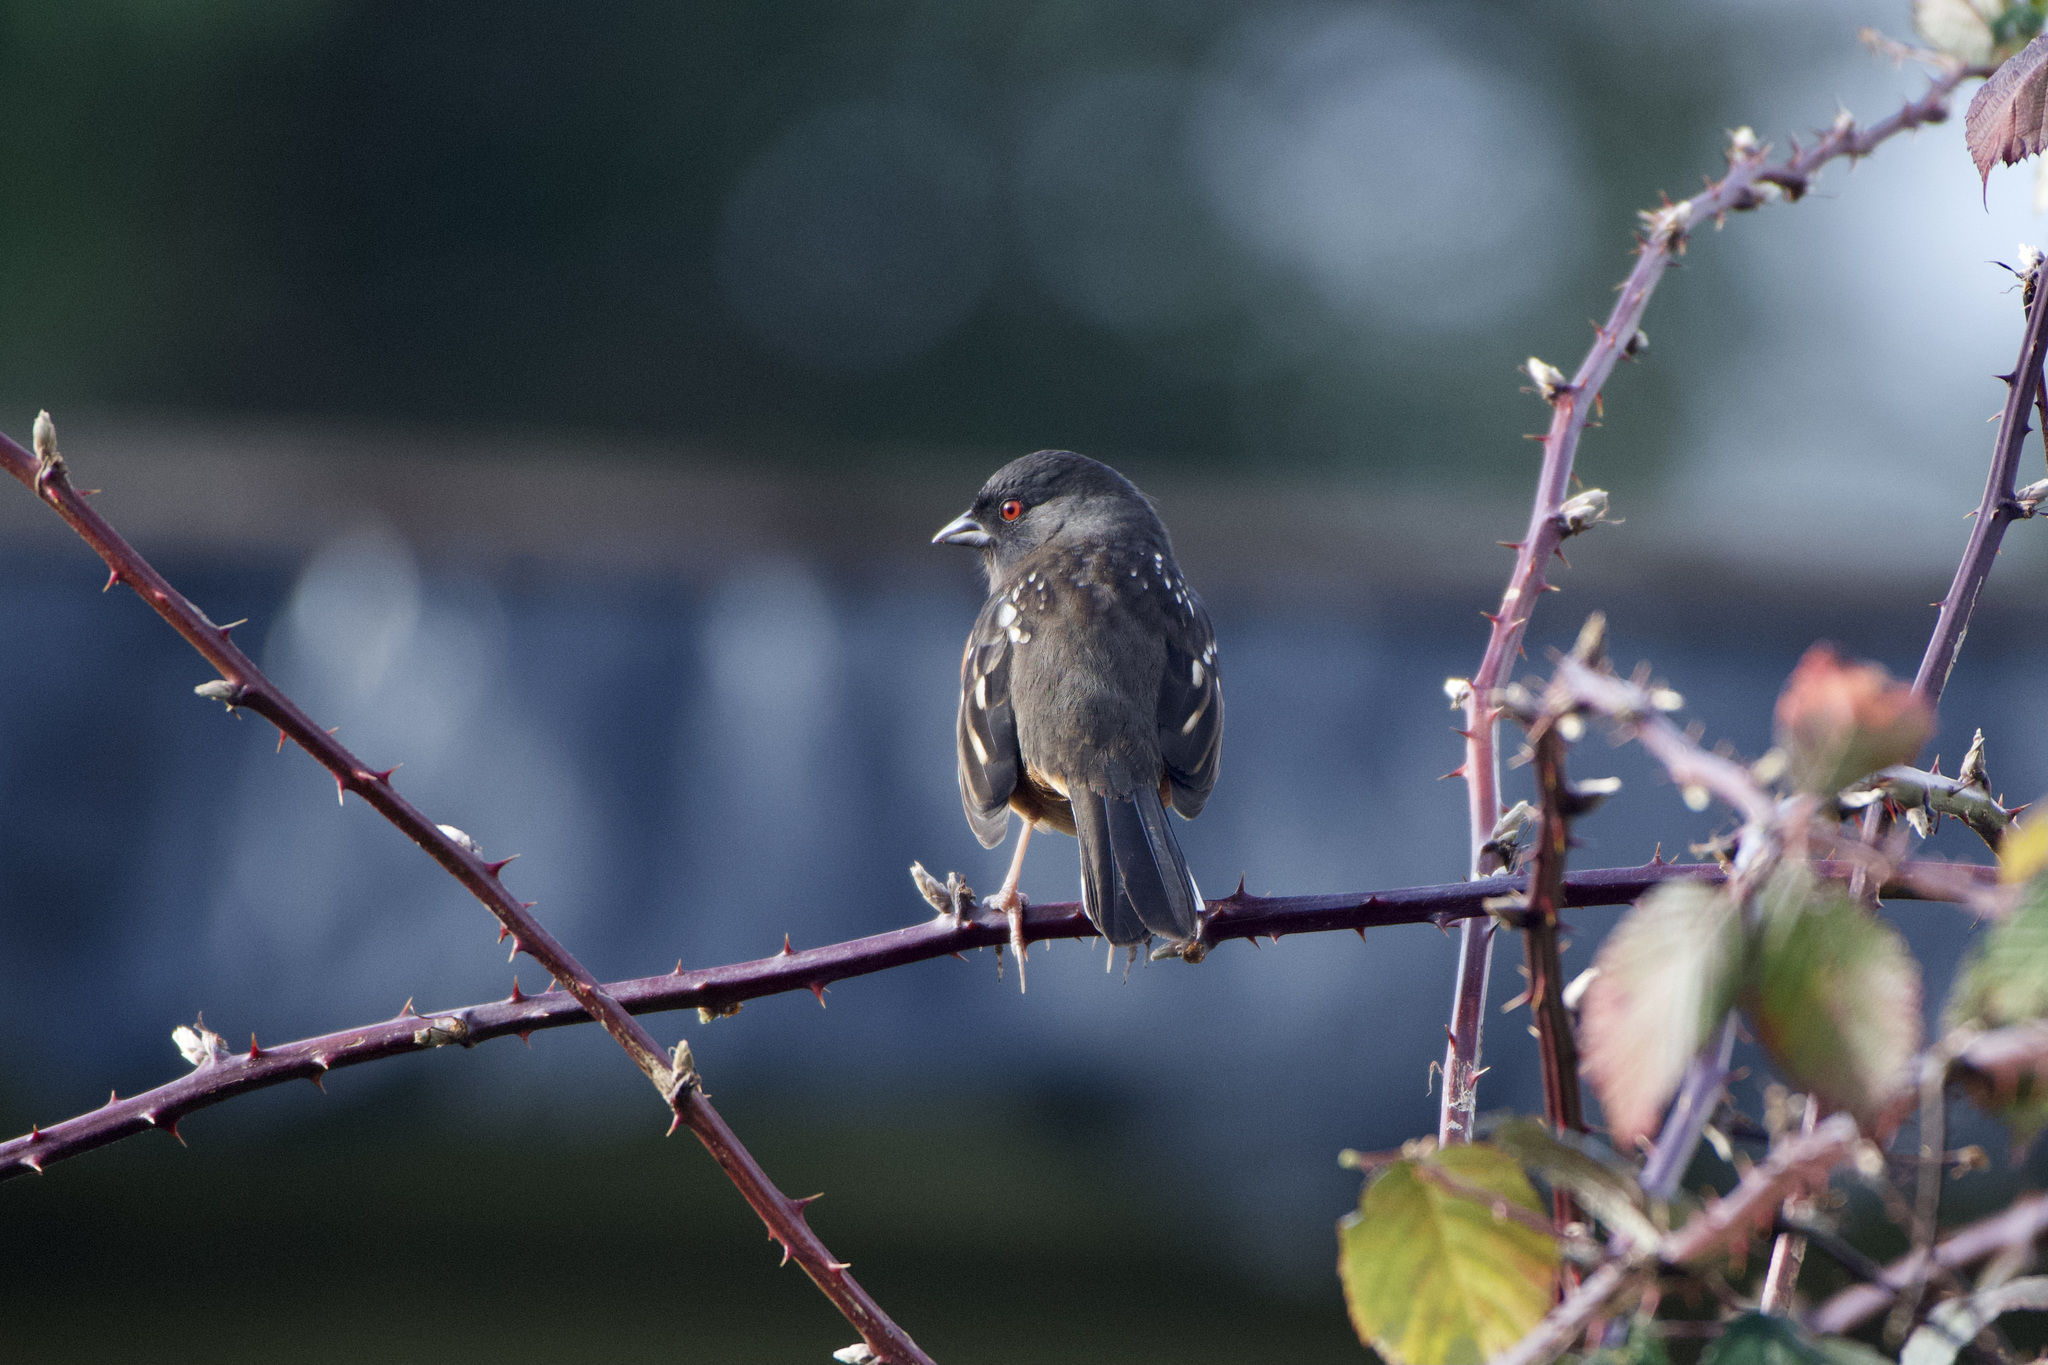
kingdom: Animalia
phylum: Chordata
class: Aves
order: Passeriformes
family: Passerellidae
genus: Pipilo
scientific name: Pipilo maculatus
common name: Spotted towhee
